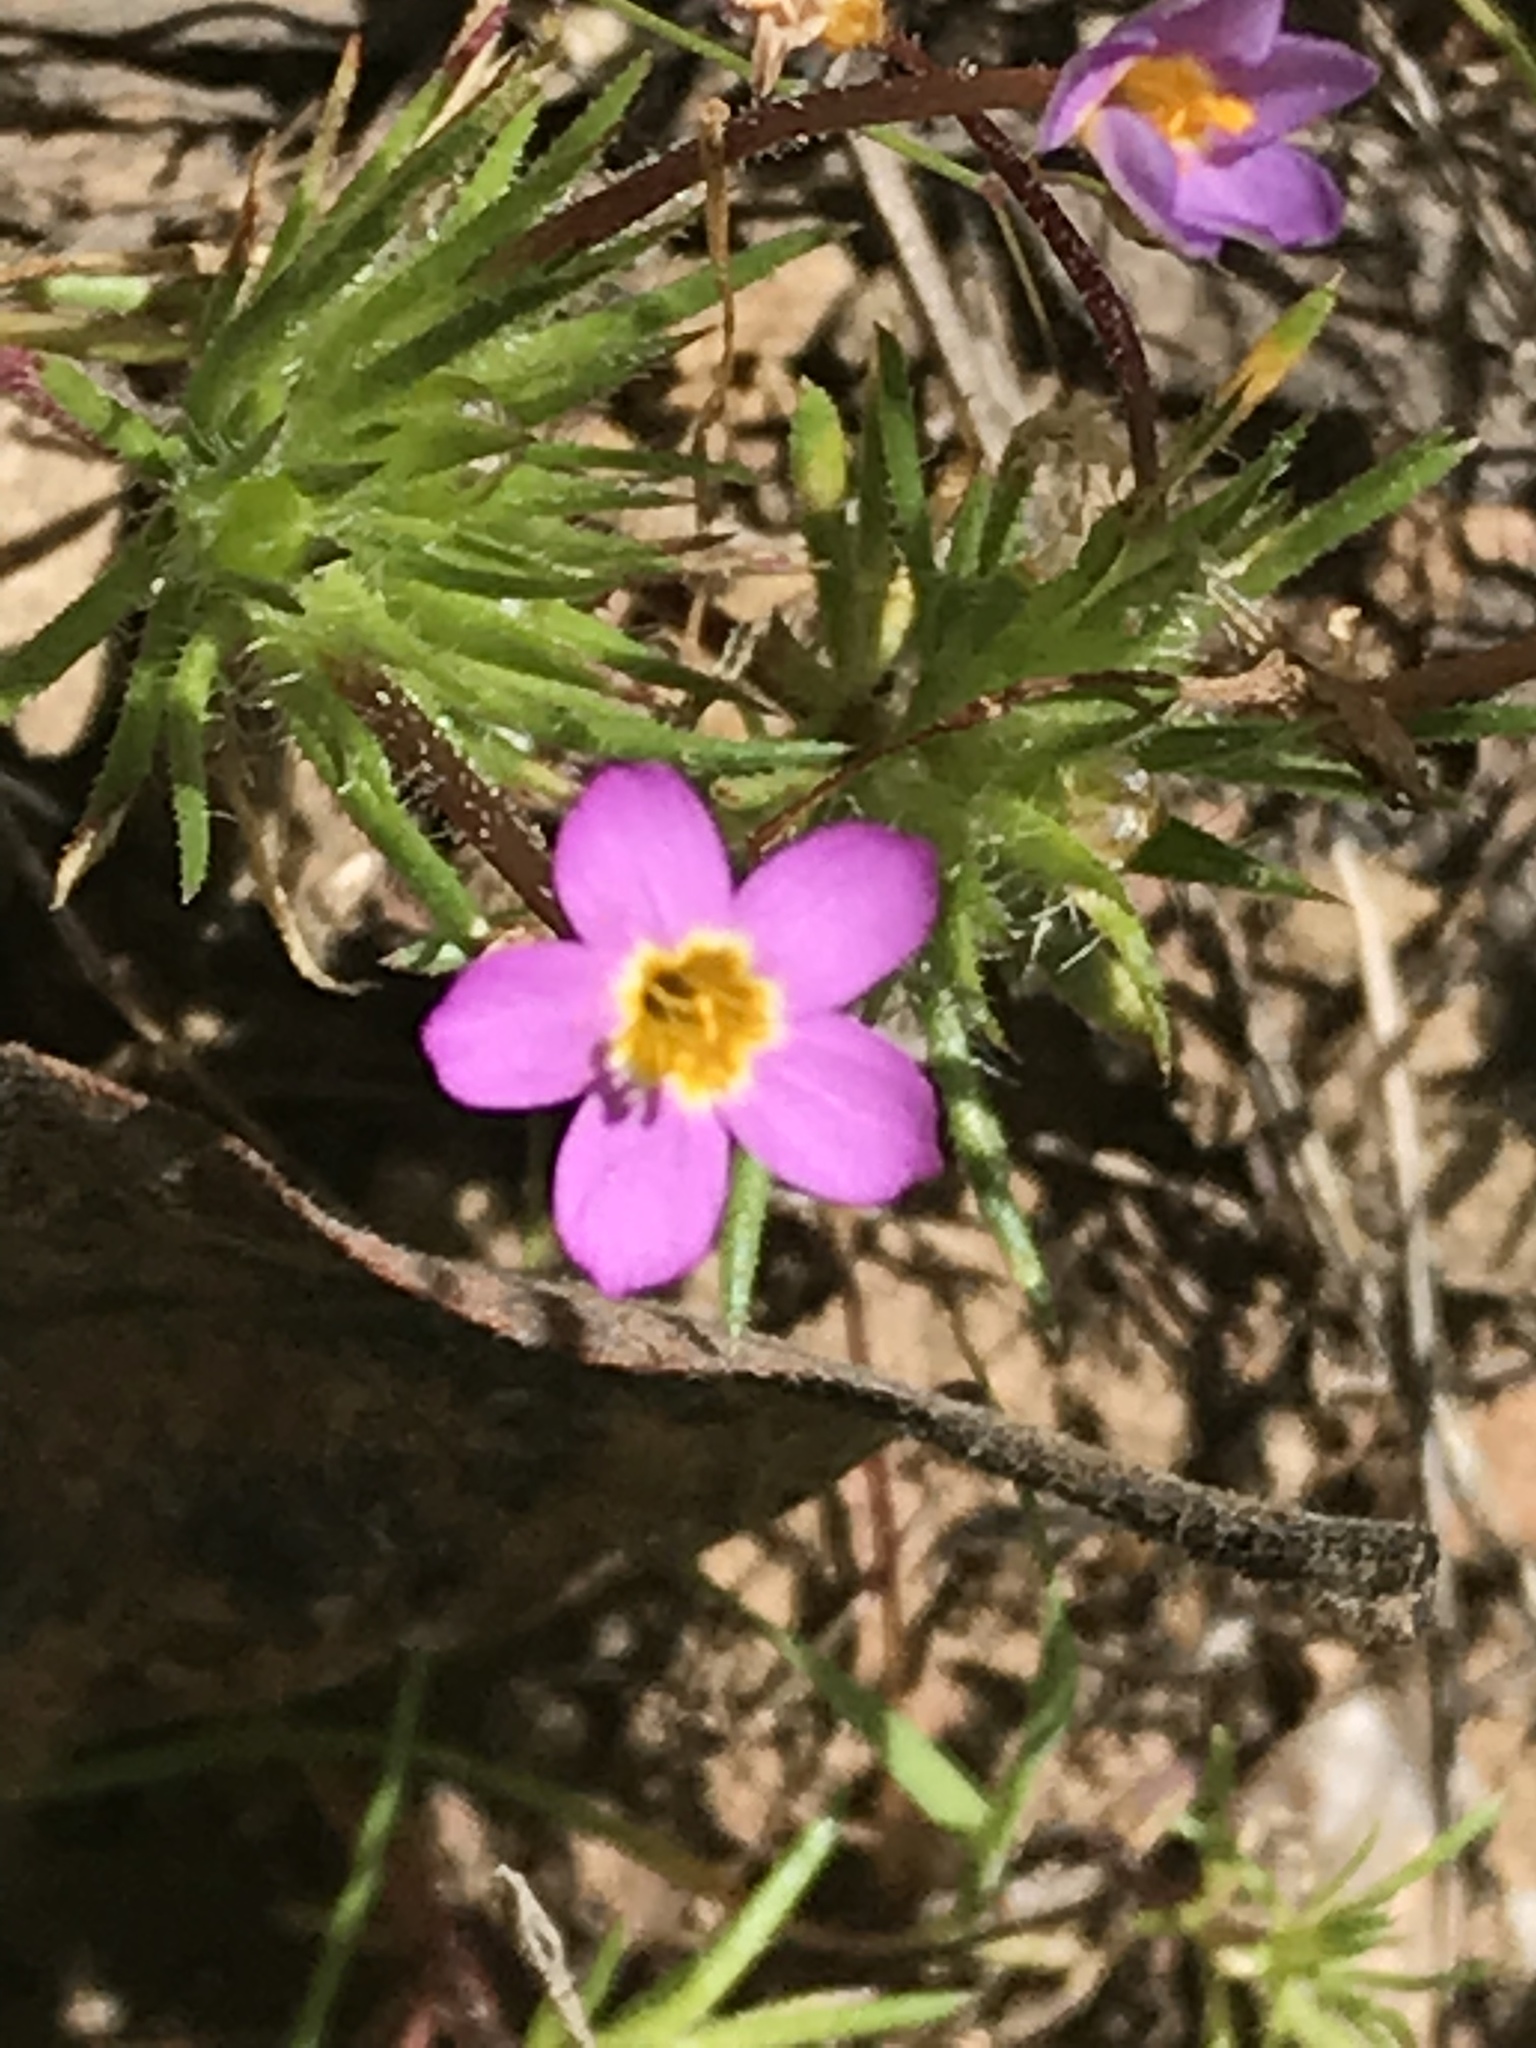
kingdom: Plantae
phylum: Tracheophyta
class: Magnoliopsida
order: Ericales
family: Polemoniaceae
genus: Leptosiphon
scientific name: Leptosiphon bicolor
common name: True babystars
